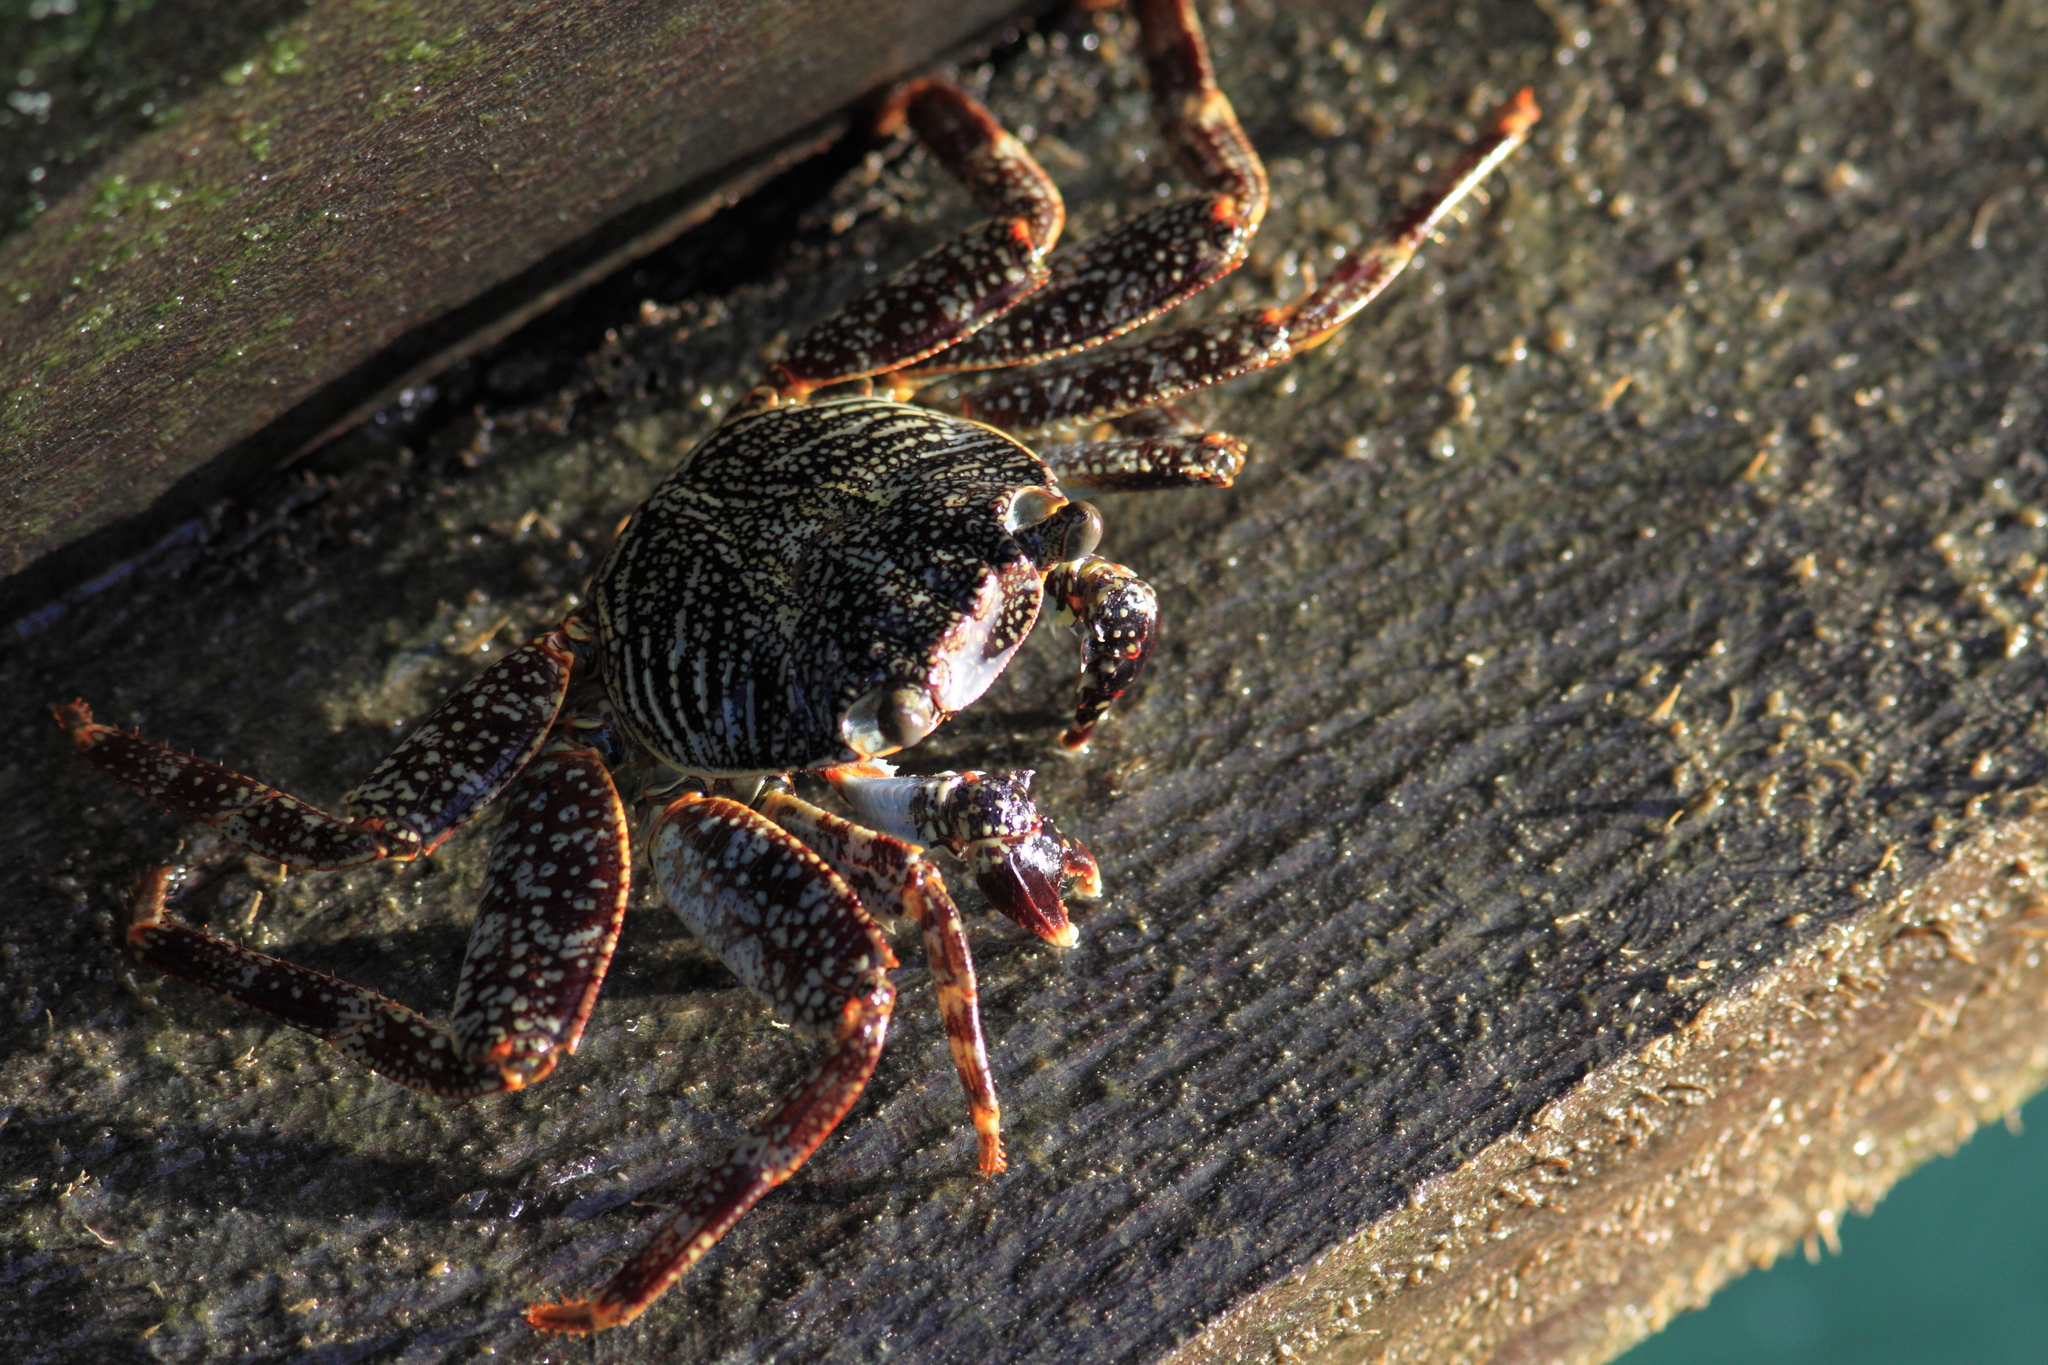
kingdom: Animalia
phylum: Arthropoda
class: Malacostraca
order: Decapoda
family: Grapsidae
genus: Grapsus
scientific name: Grapsus grapsus
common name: Sally lightfoot
